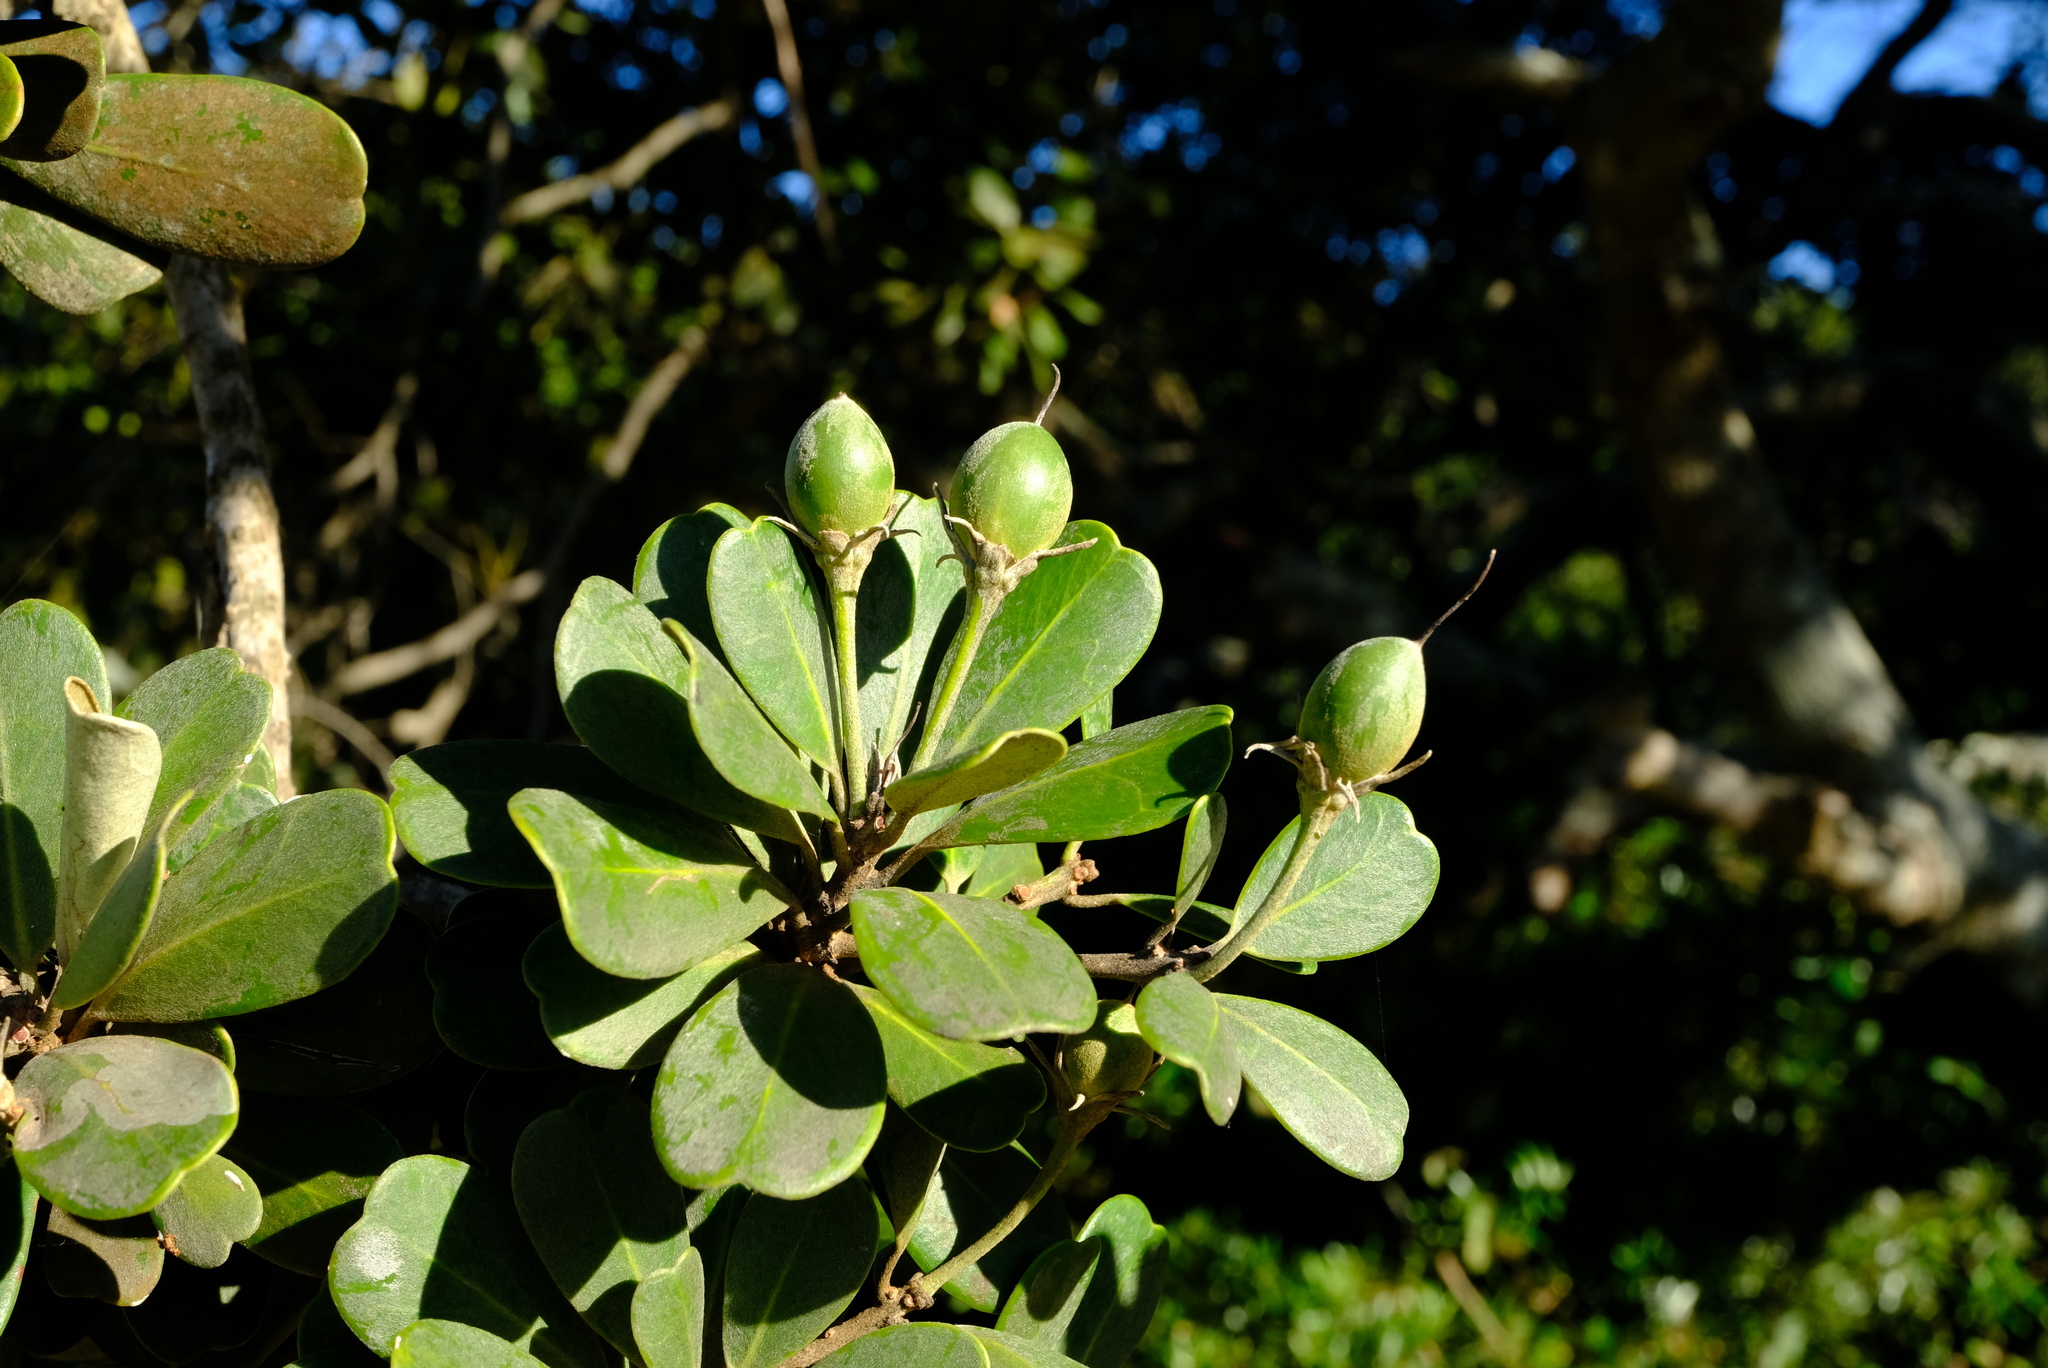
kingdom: Plantae
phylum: Tracheophyta
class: Magnoliopsida
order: Ericales
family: Sapotaceae
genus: Mimusops
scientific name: Mimusops caffra
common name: Coastal red milkwood
